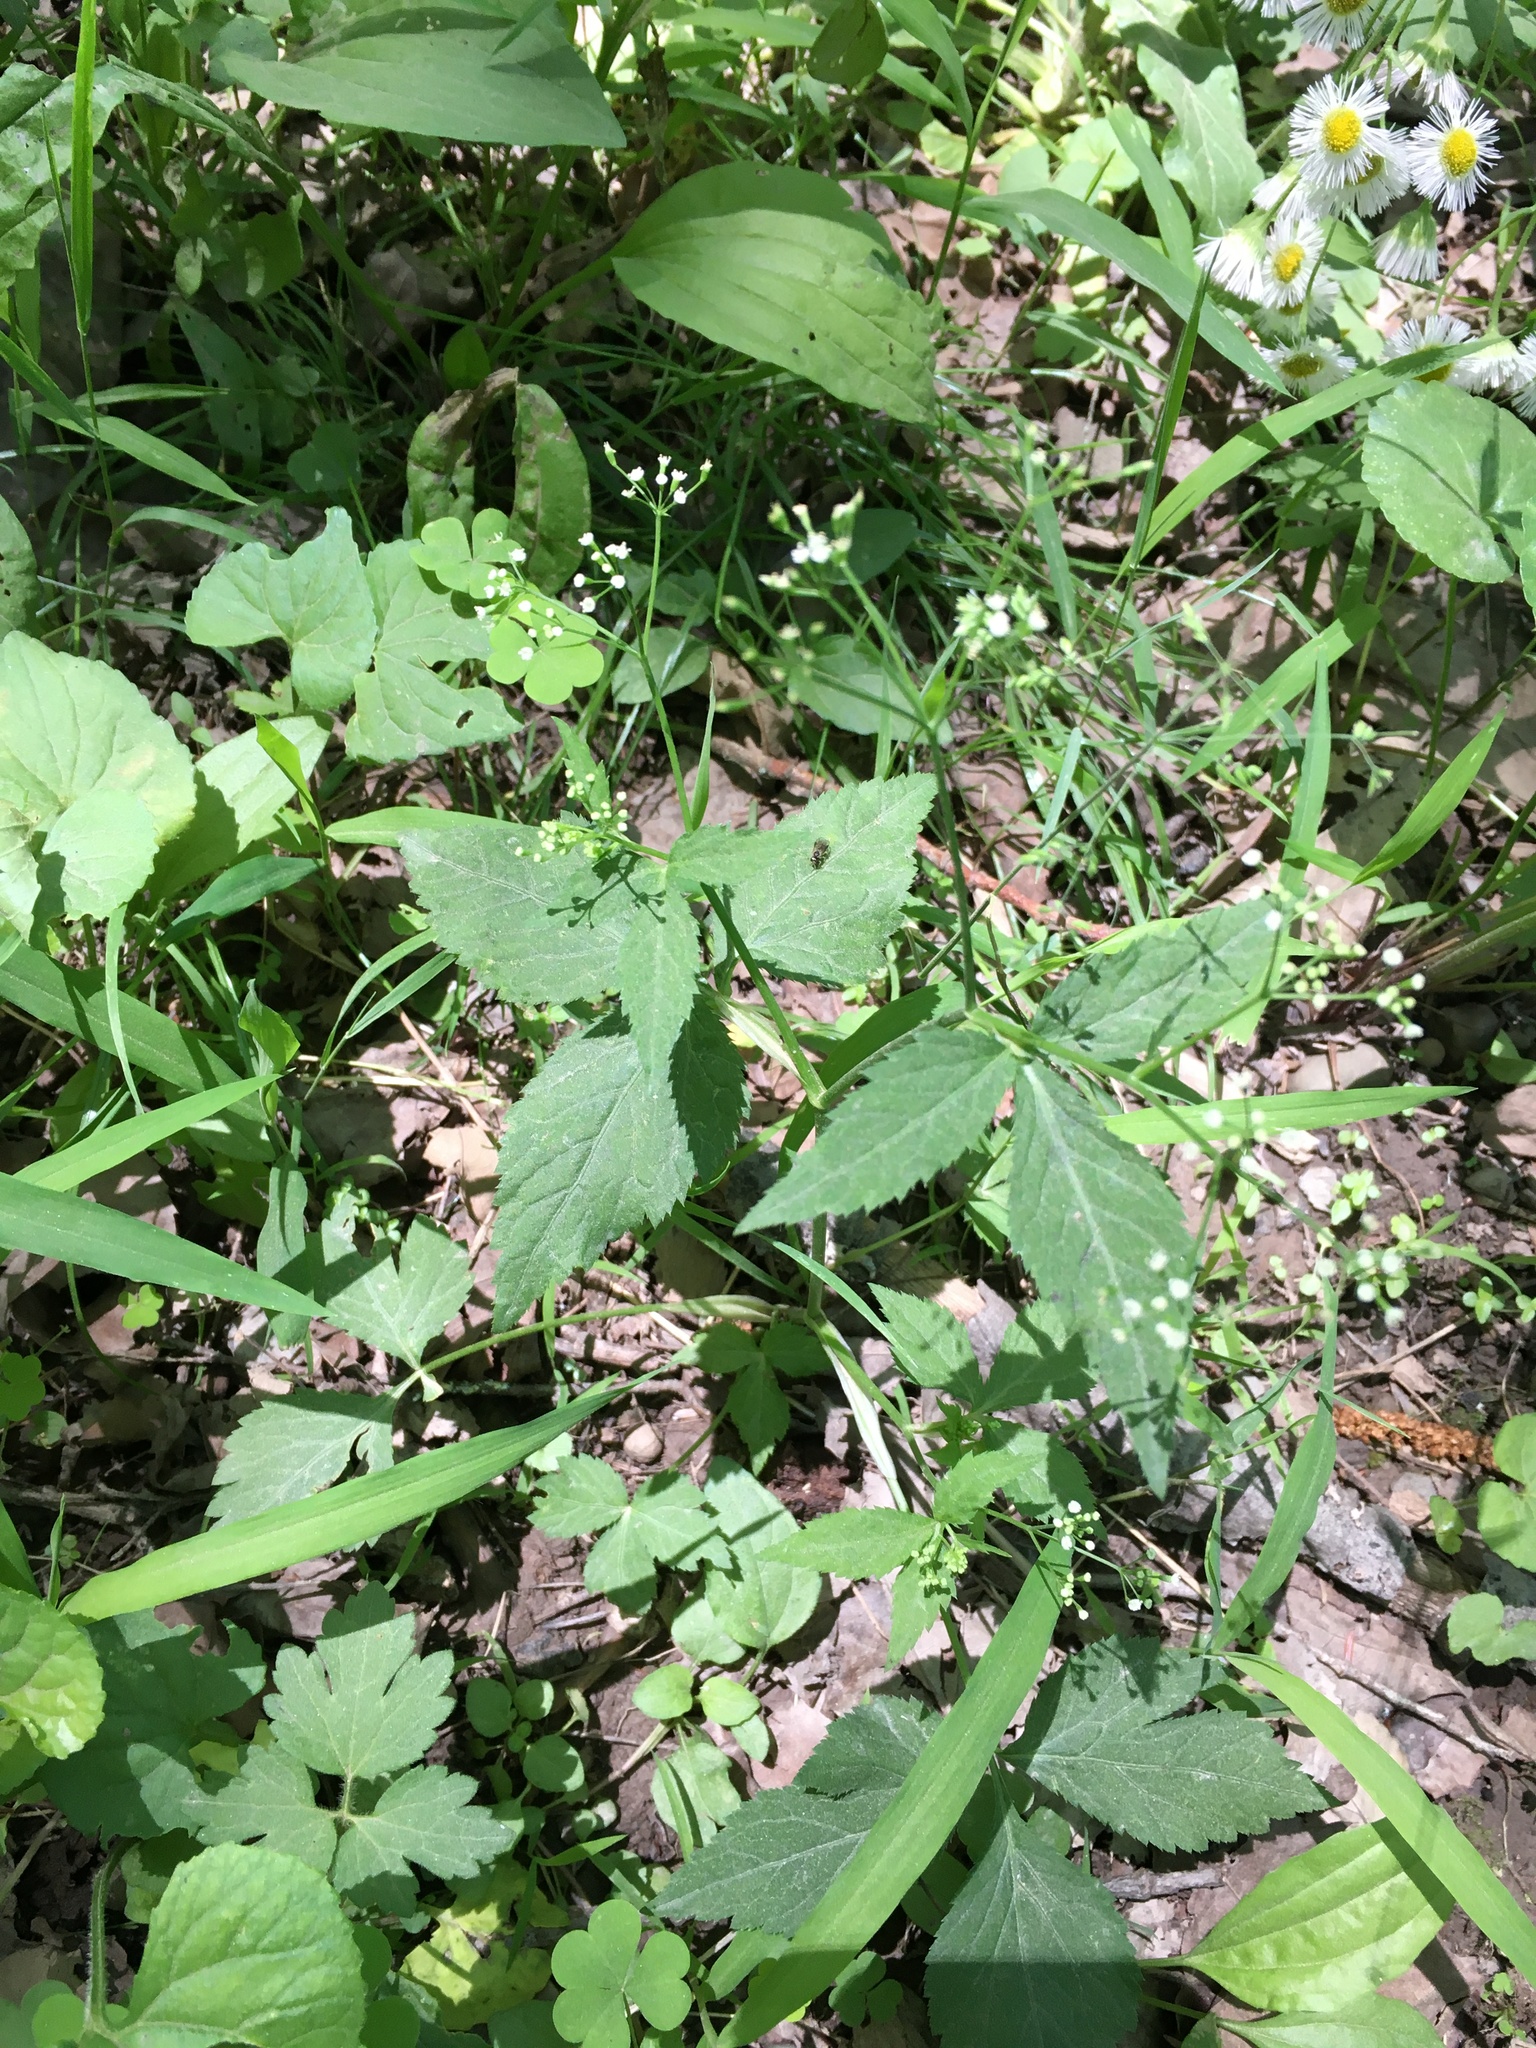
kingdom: Plantae
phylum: Tracheophyta
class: Magnoliopsida
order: Apiales
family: Apiaceae
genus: Cryptotaenia
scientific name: Cryptotaenia canadensis
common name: Honewort
